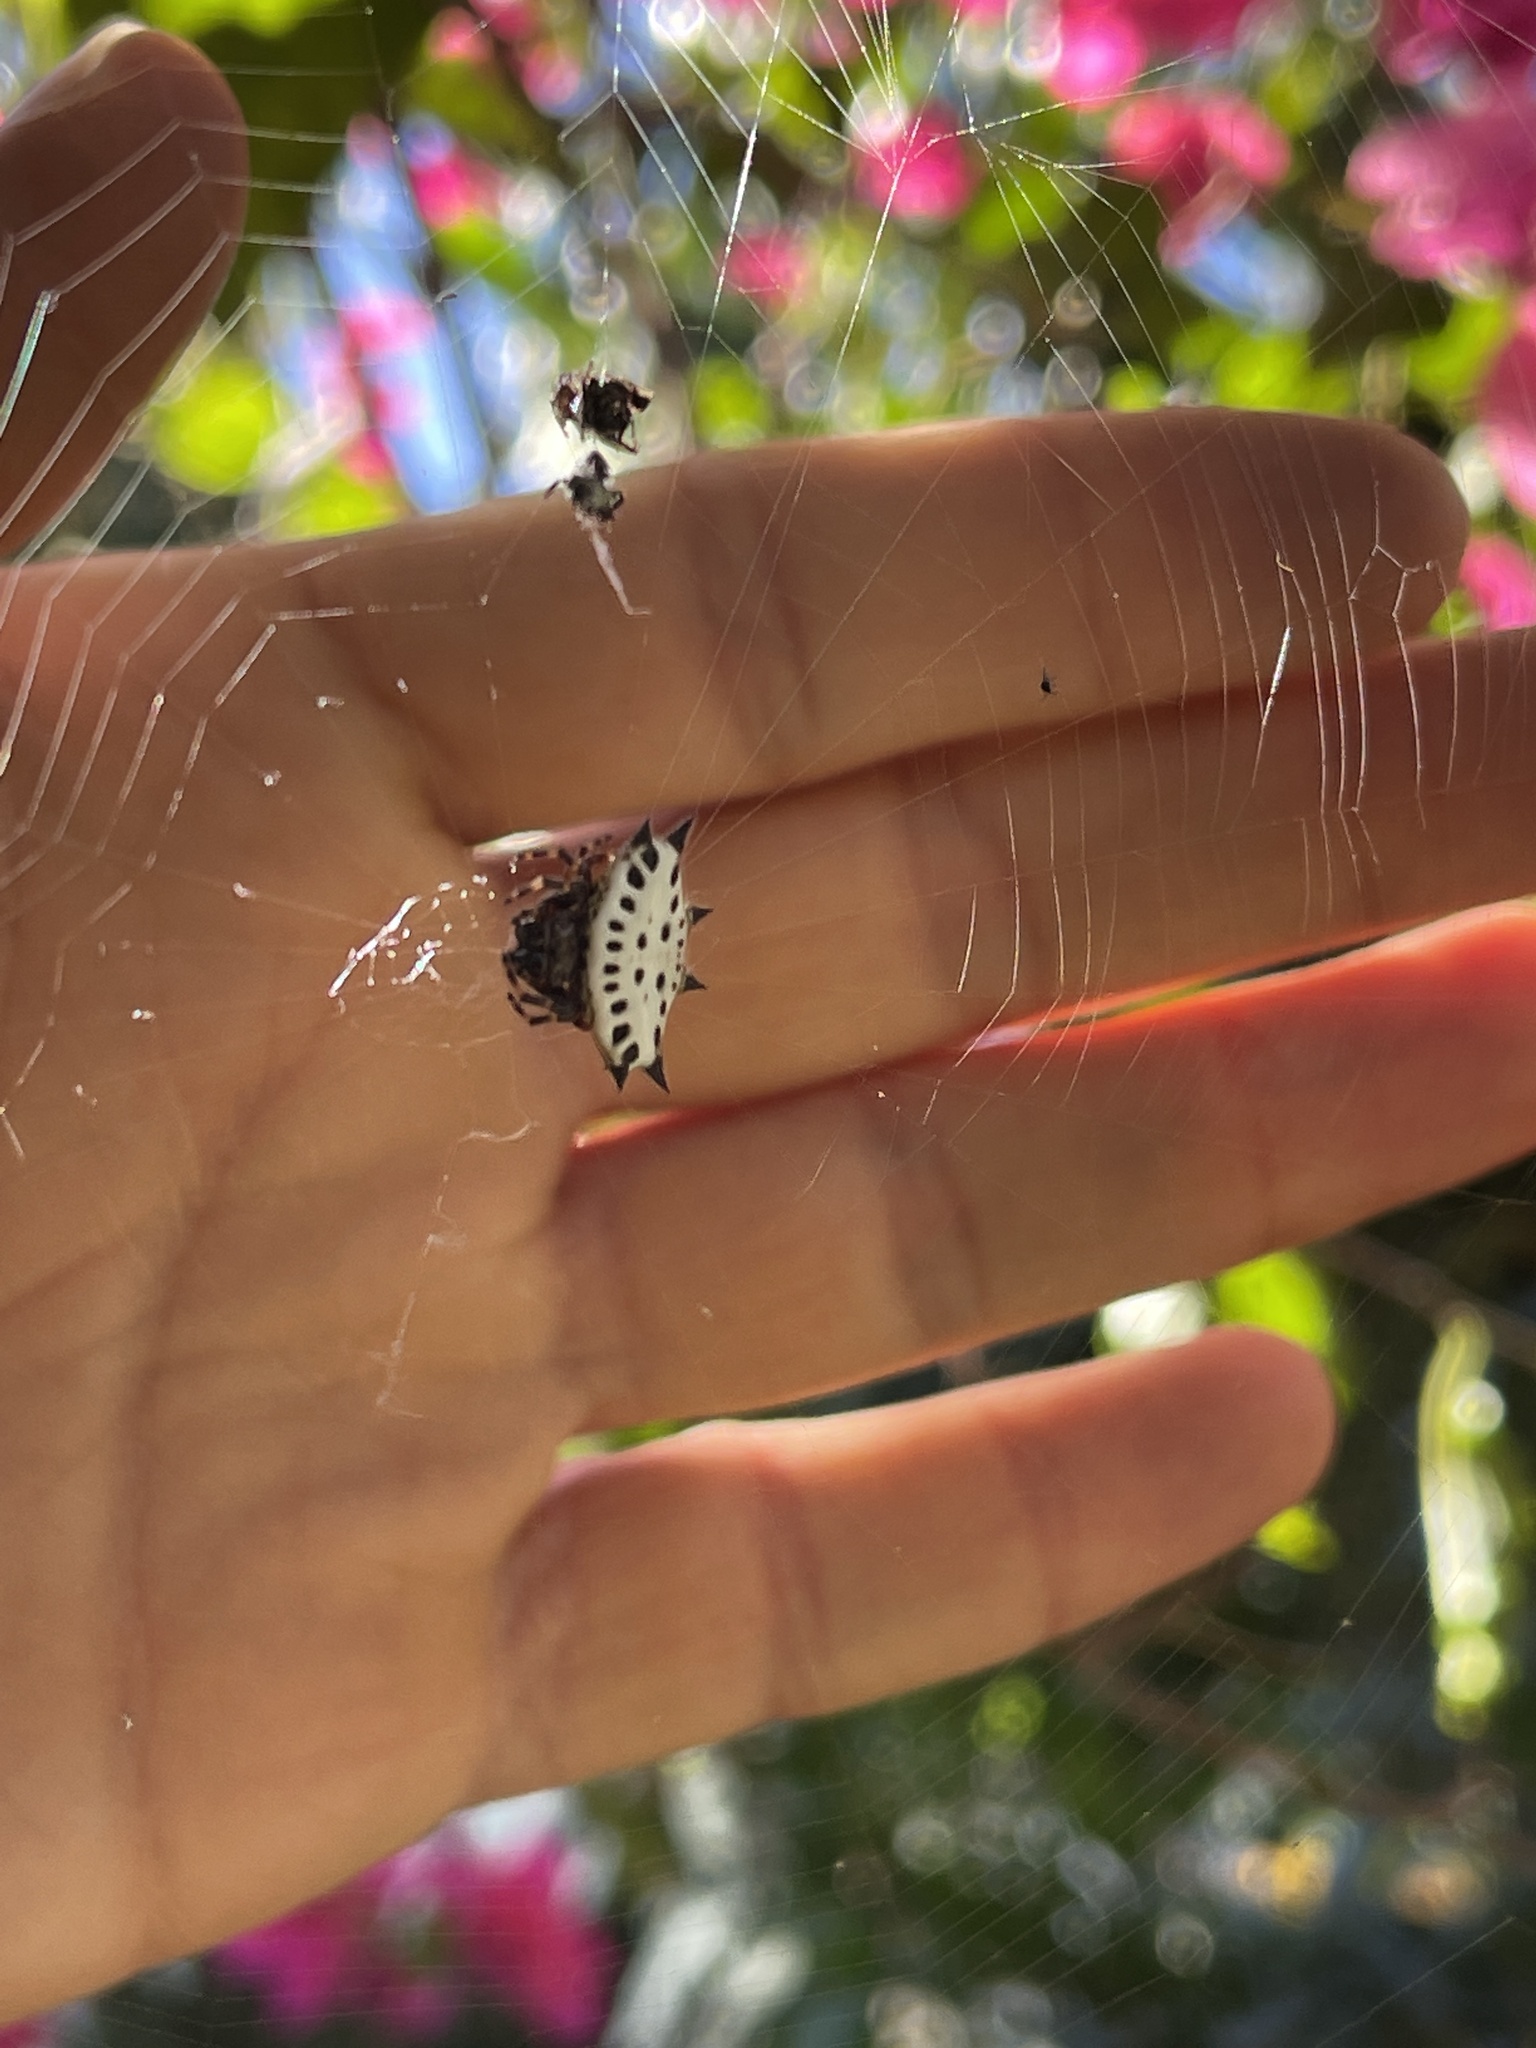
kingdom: Animalia
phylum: Arthropoda
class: Arachnida
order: Araneae
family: Araneidae
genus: Gasteracantha
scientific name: Gasteracantha cancriformis
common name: Orb weavers
